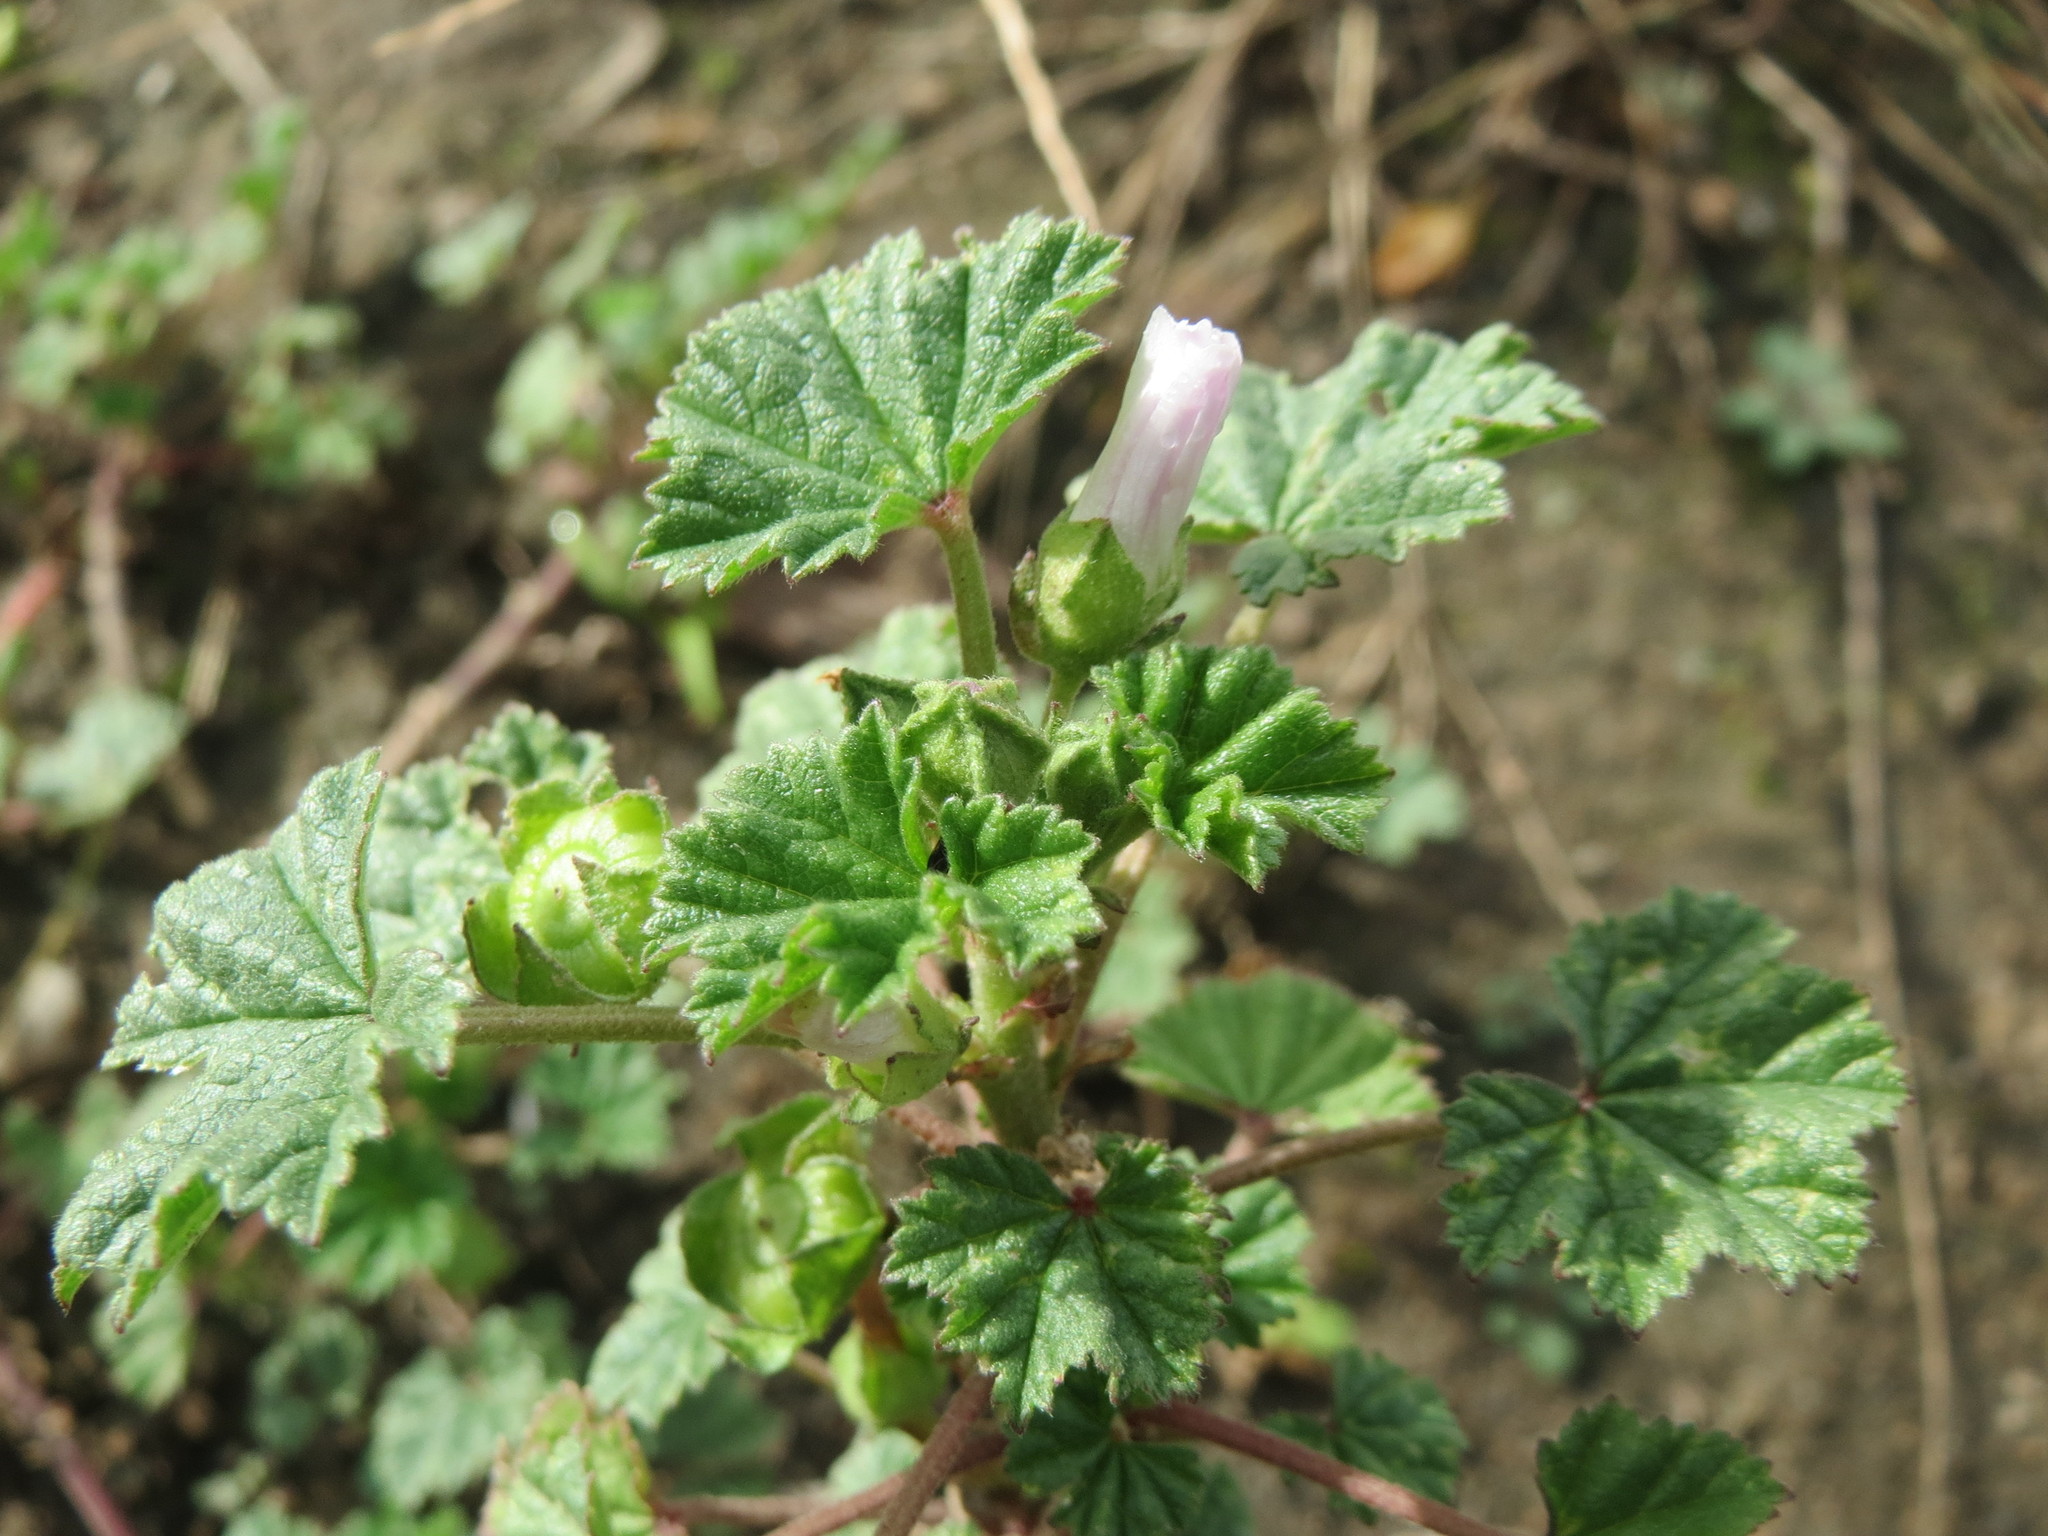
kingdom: Plantae
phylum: Tracheophyta
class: Magnoliopsida
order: Malvales
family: Malvaceae
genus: Malva
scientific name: Malva neglecta
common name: Common mallow
